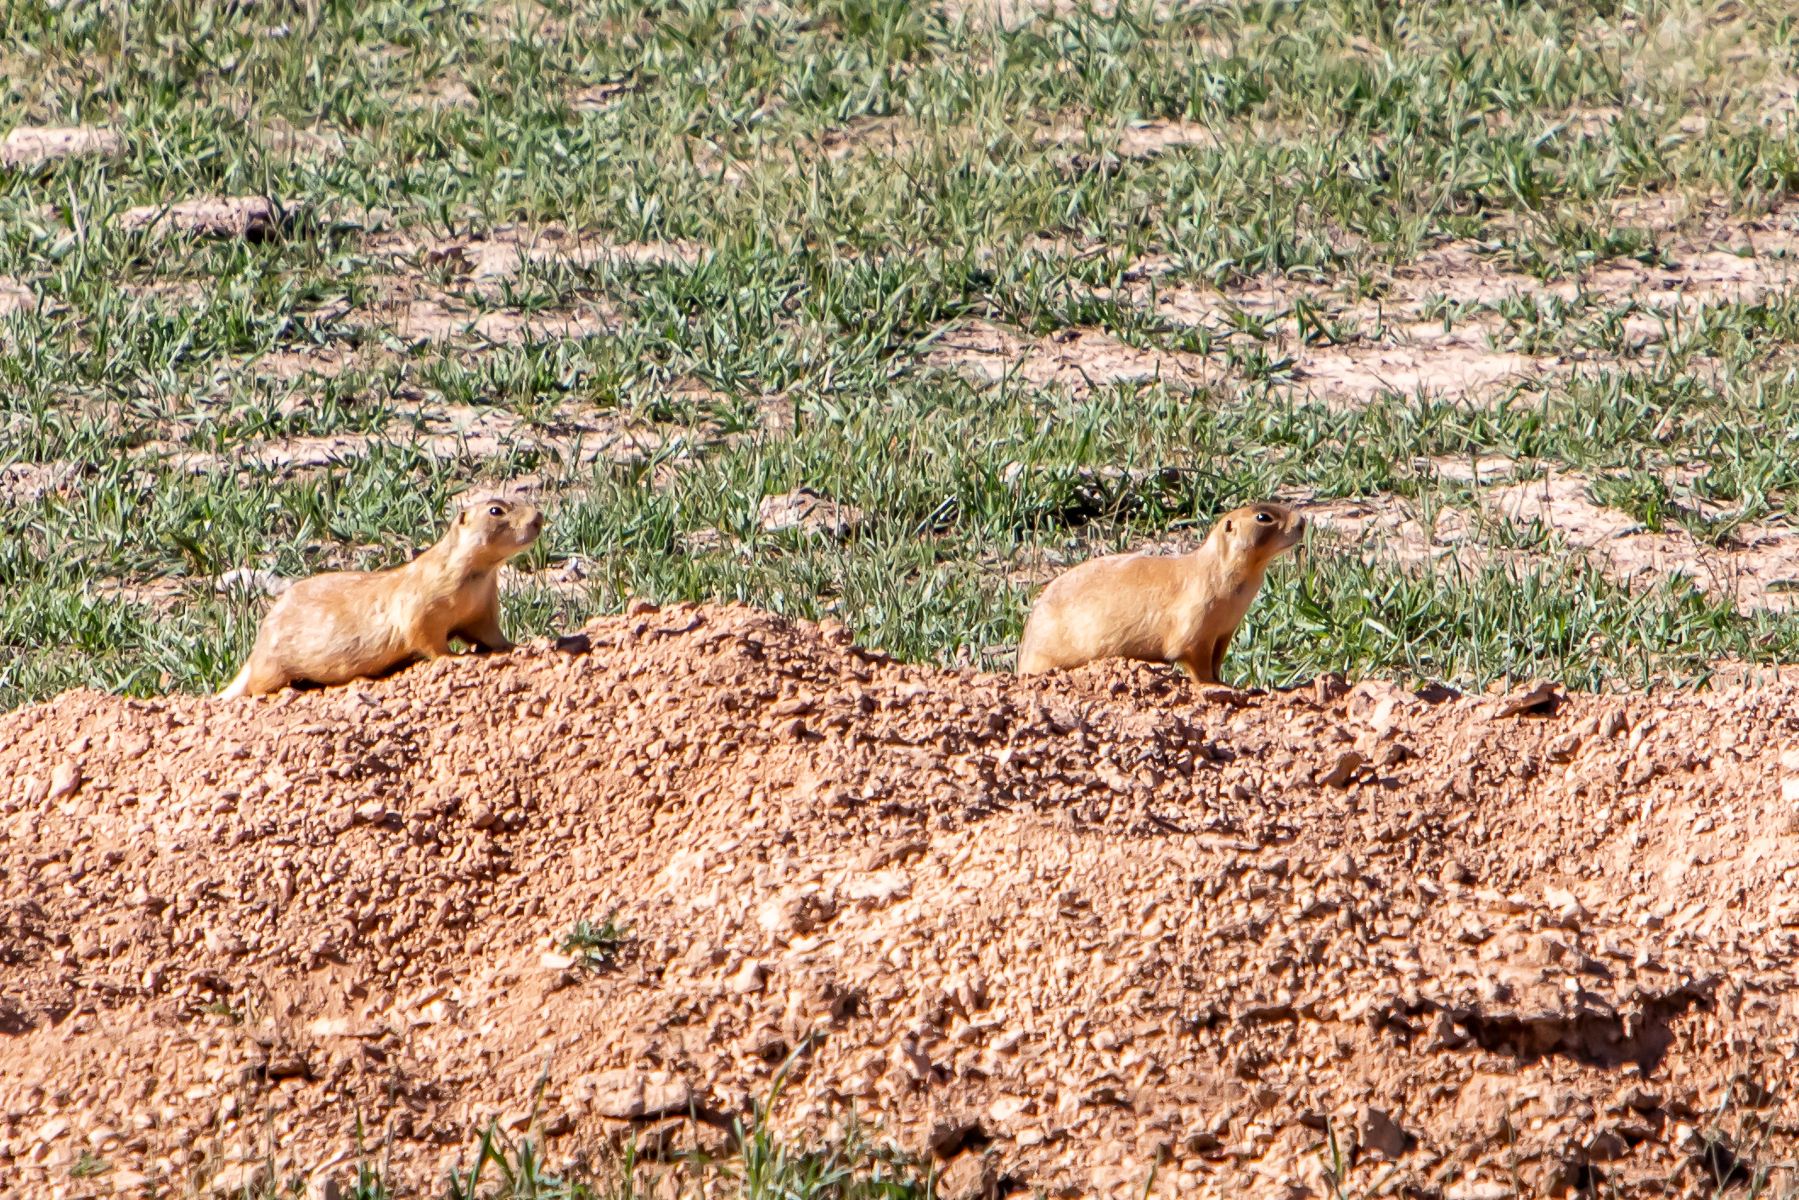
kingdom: Animalia
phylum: Chordata
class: Mammalia
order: Rodentia
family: Sciuridae
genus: Cynomys
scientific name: Cynomys parvidens
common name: Utah prairie dog
